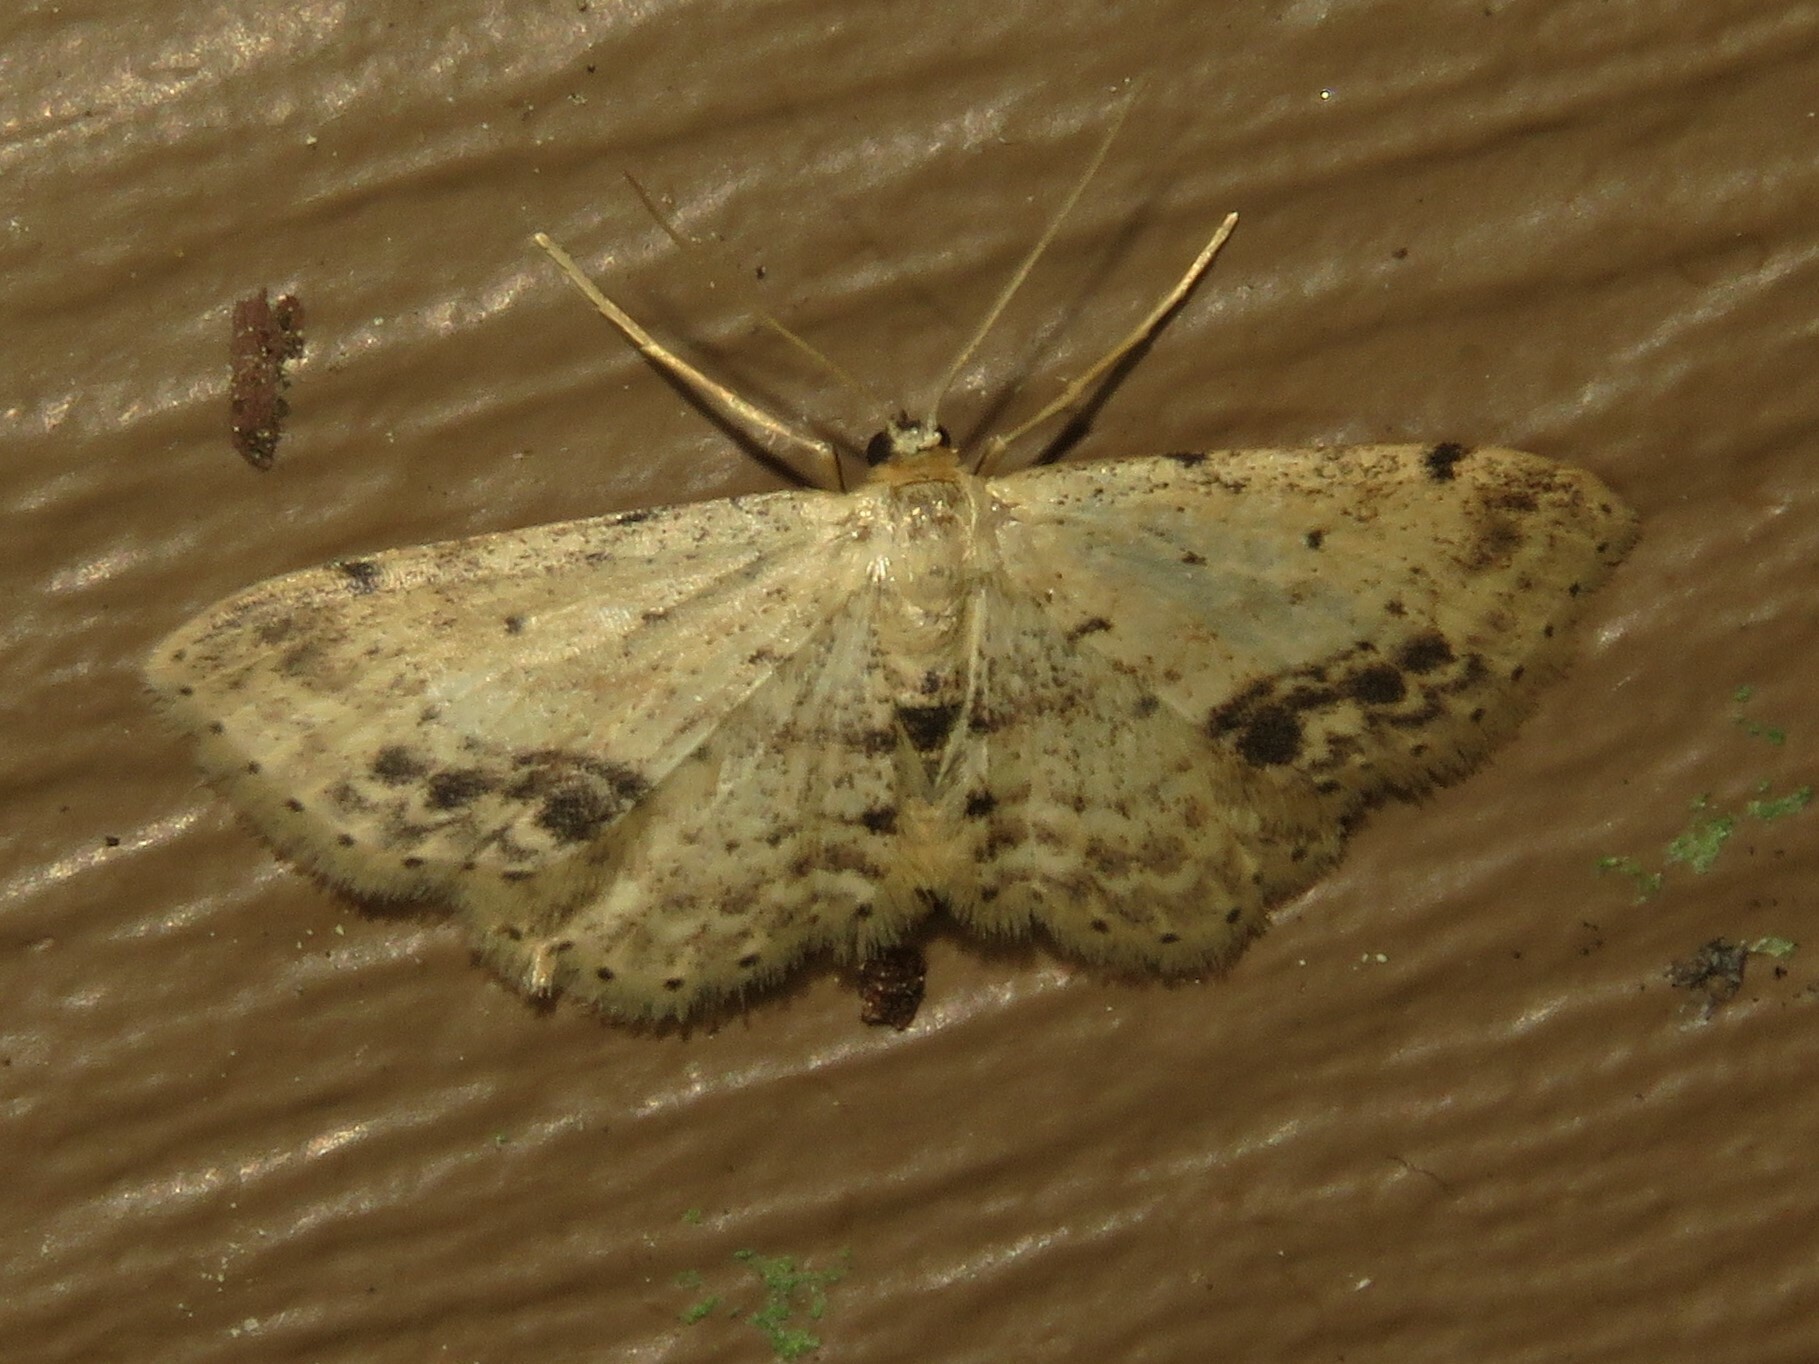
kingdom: Animalia
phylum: Arthropoda
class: Insecta
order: Lepidoptera
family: Geometridae
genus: Idaea
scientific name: Idaea dimidiata
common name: Single-dotted wave
